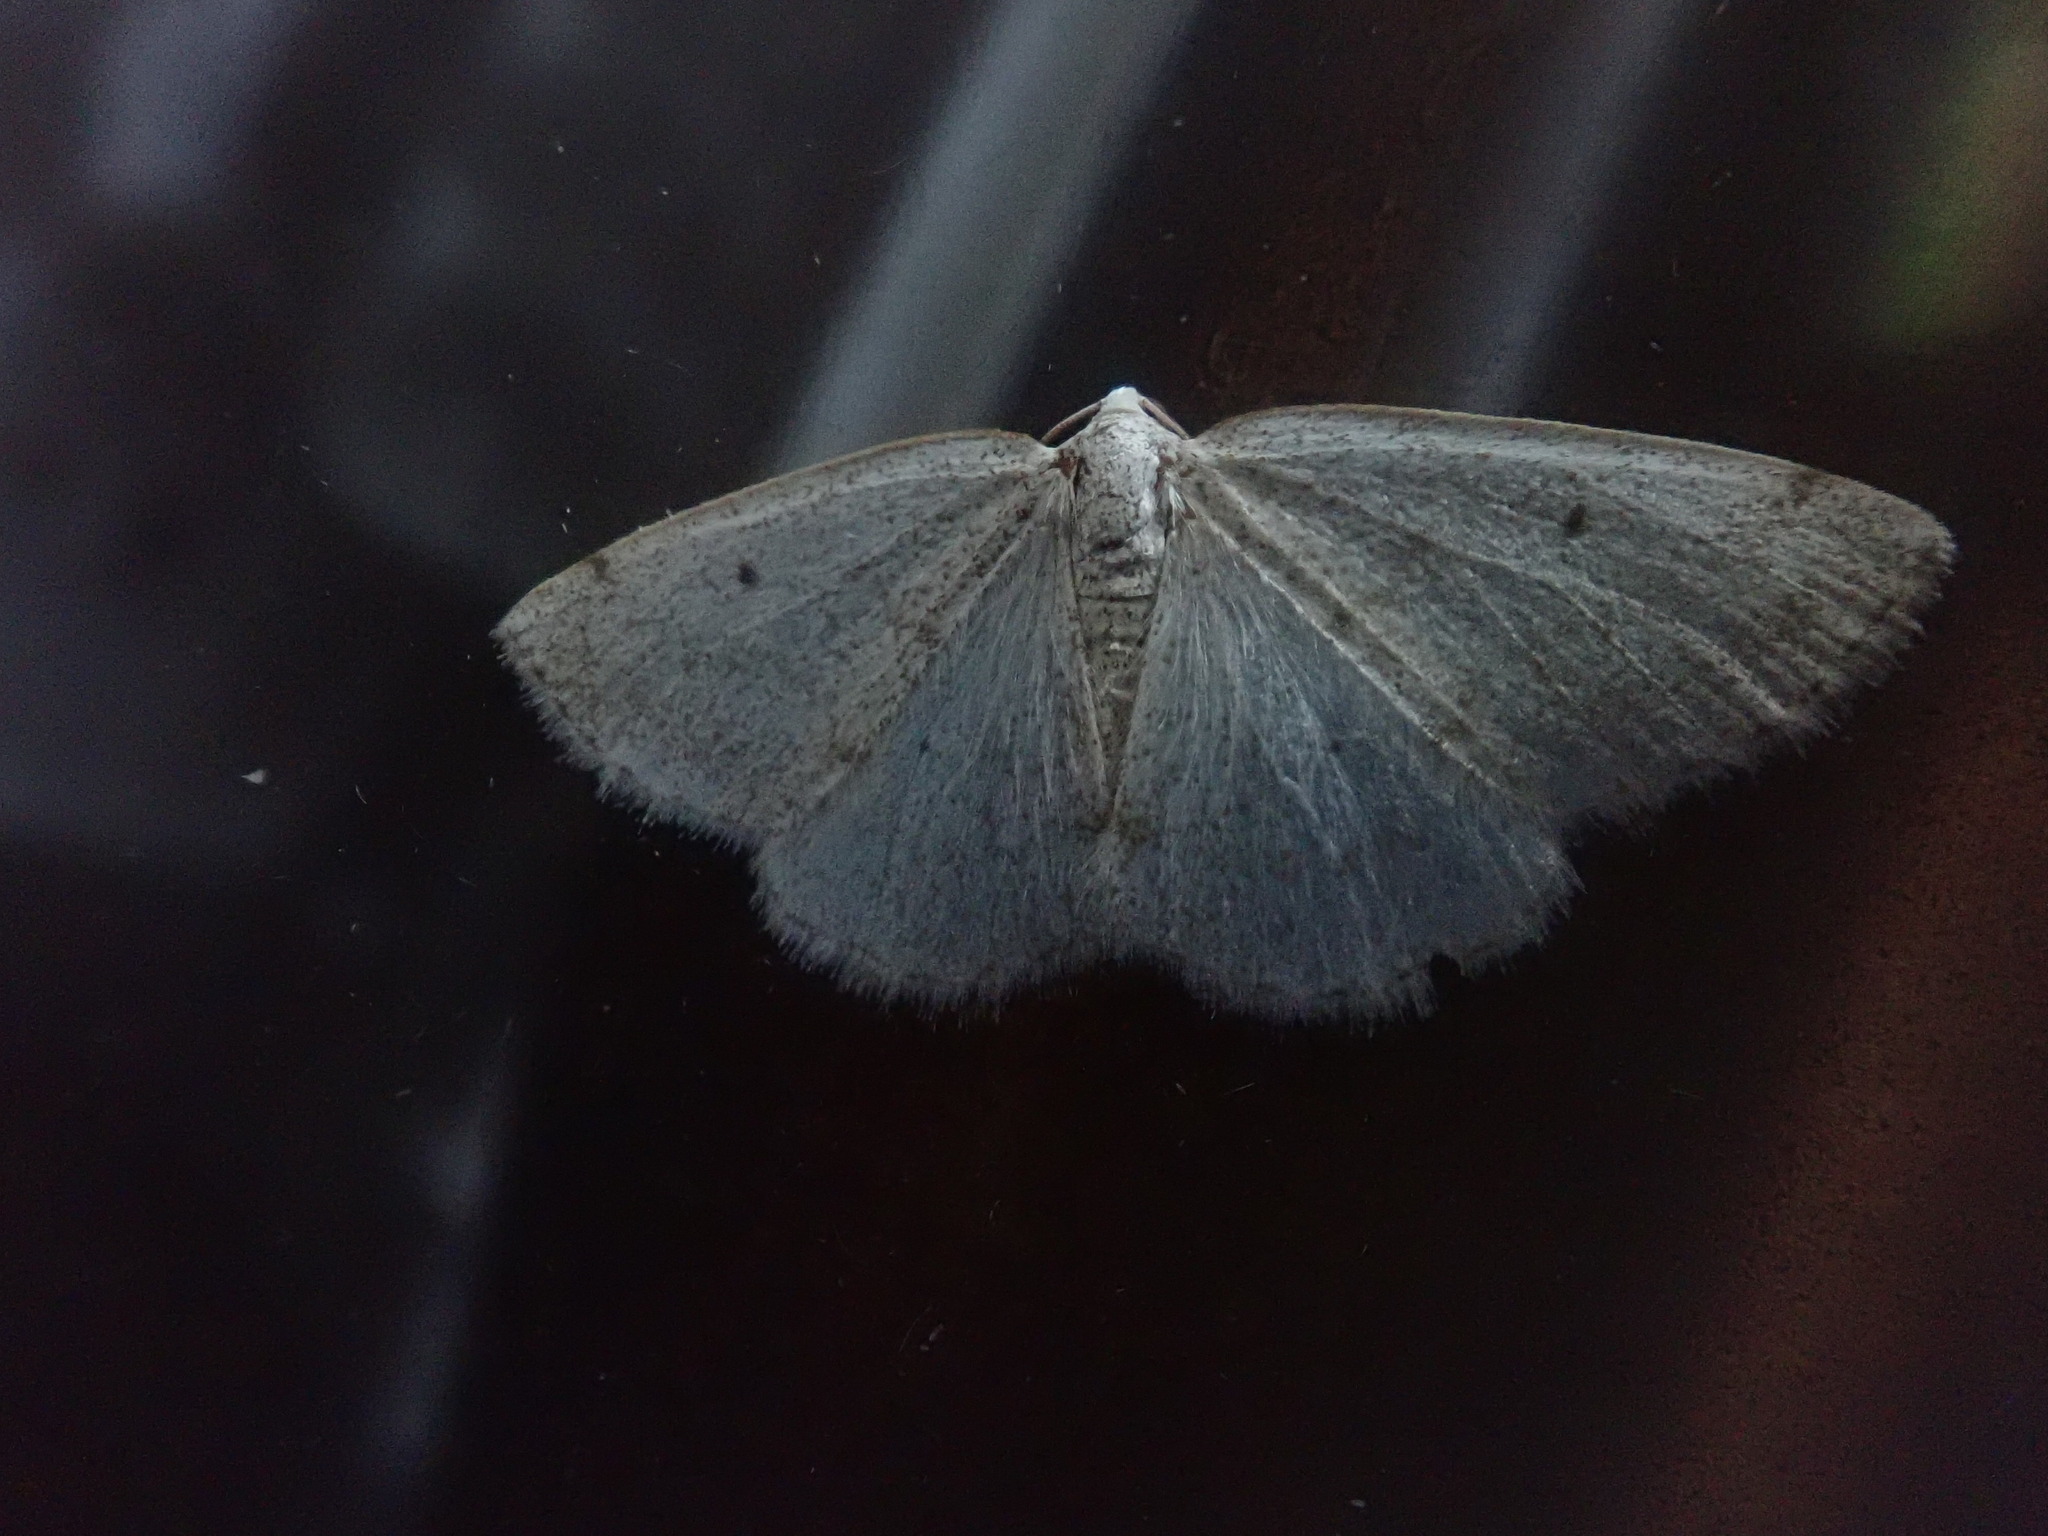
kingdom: Animalia
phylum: Arthropoda
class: Insecta
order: Lepidoptera
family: Geometridae
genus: Lomographa
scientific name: Lomographa glomeraria
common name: Gray spring moth
